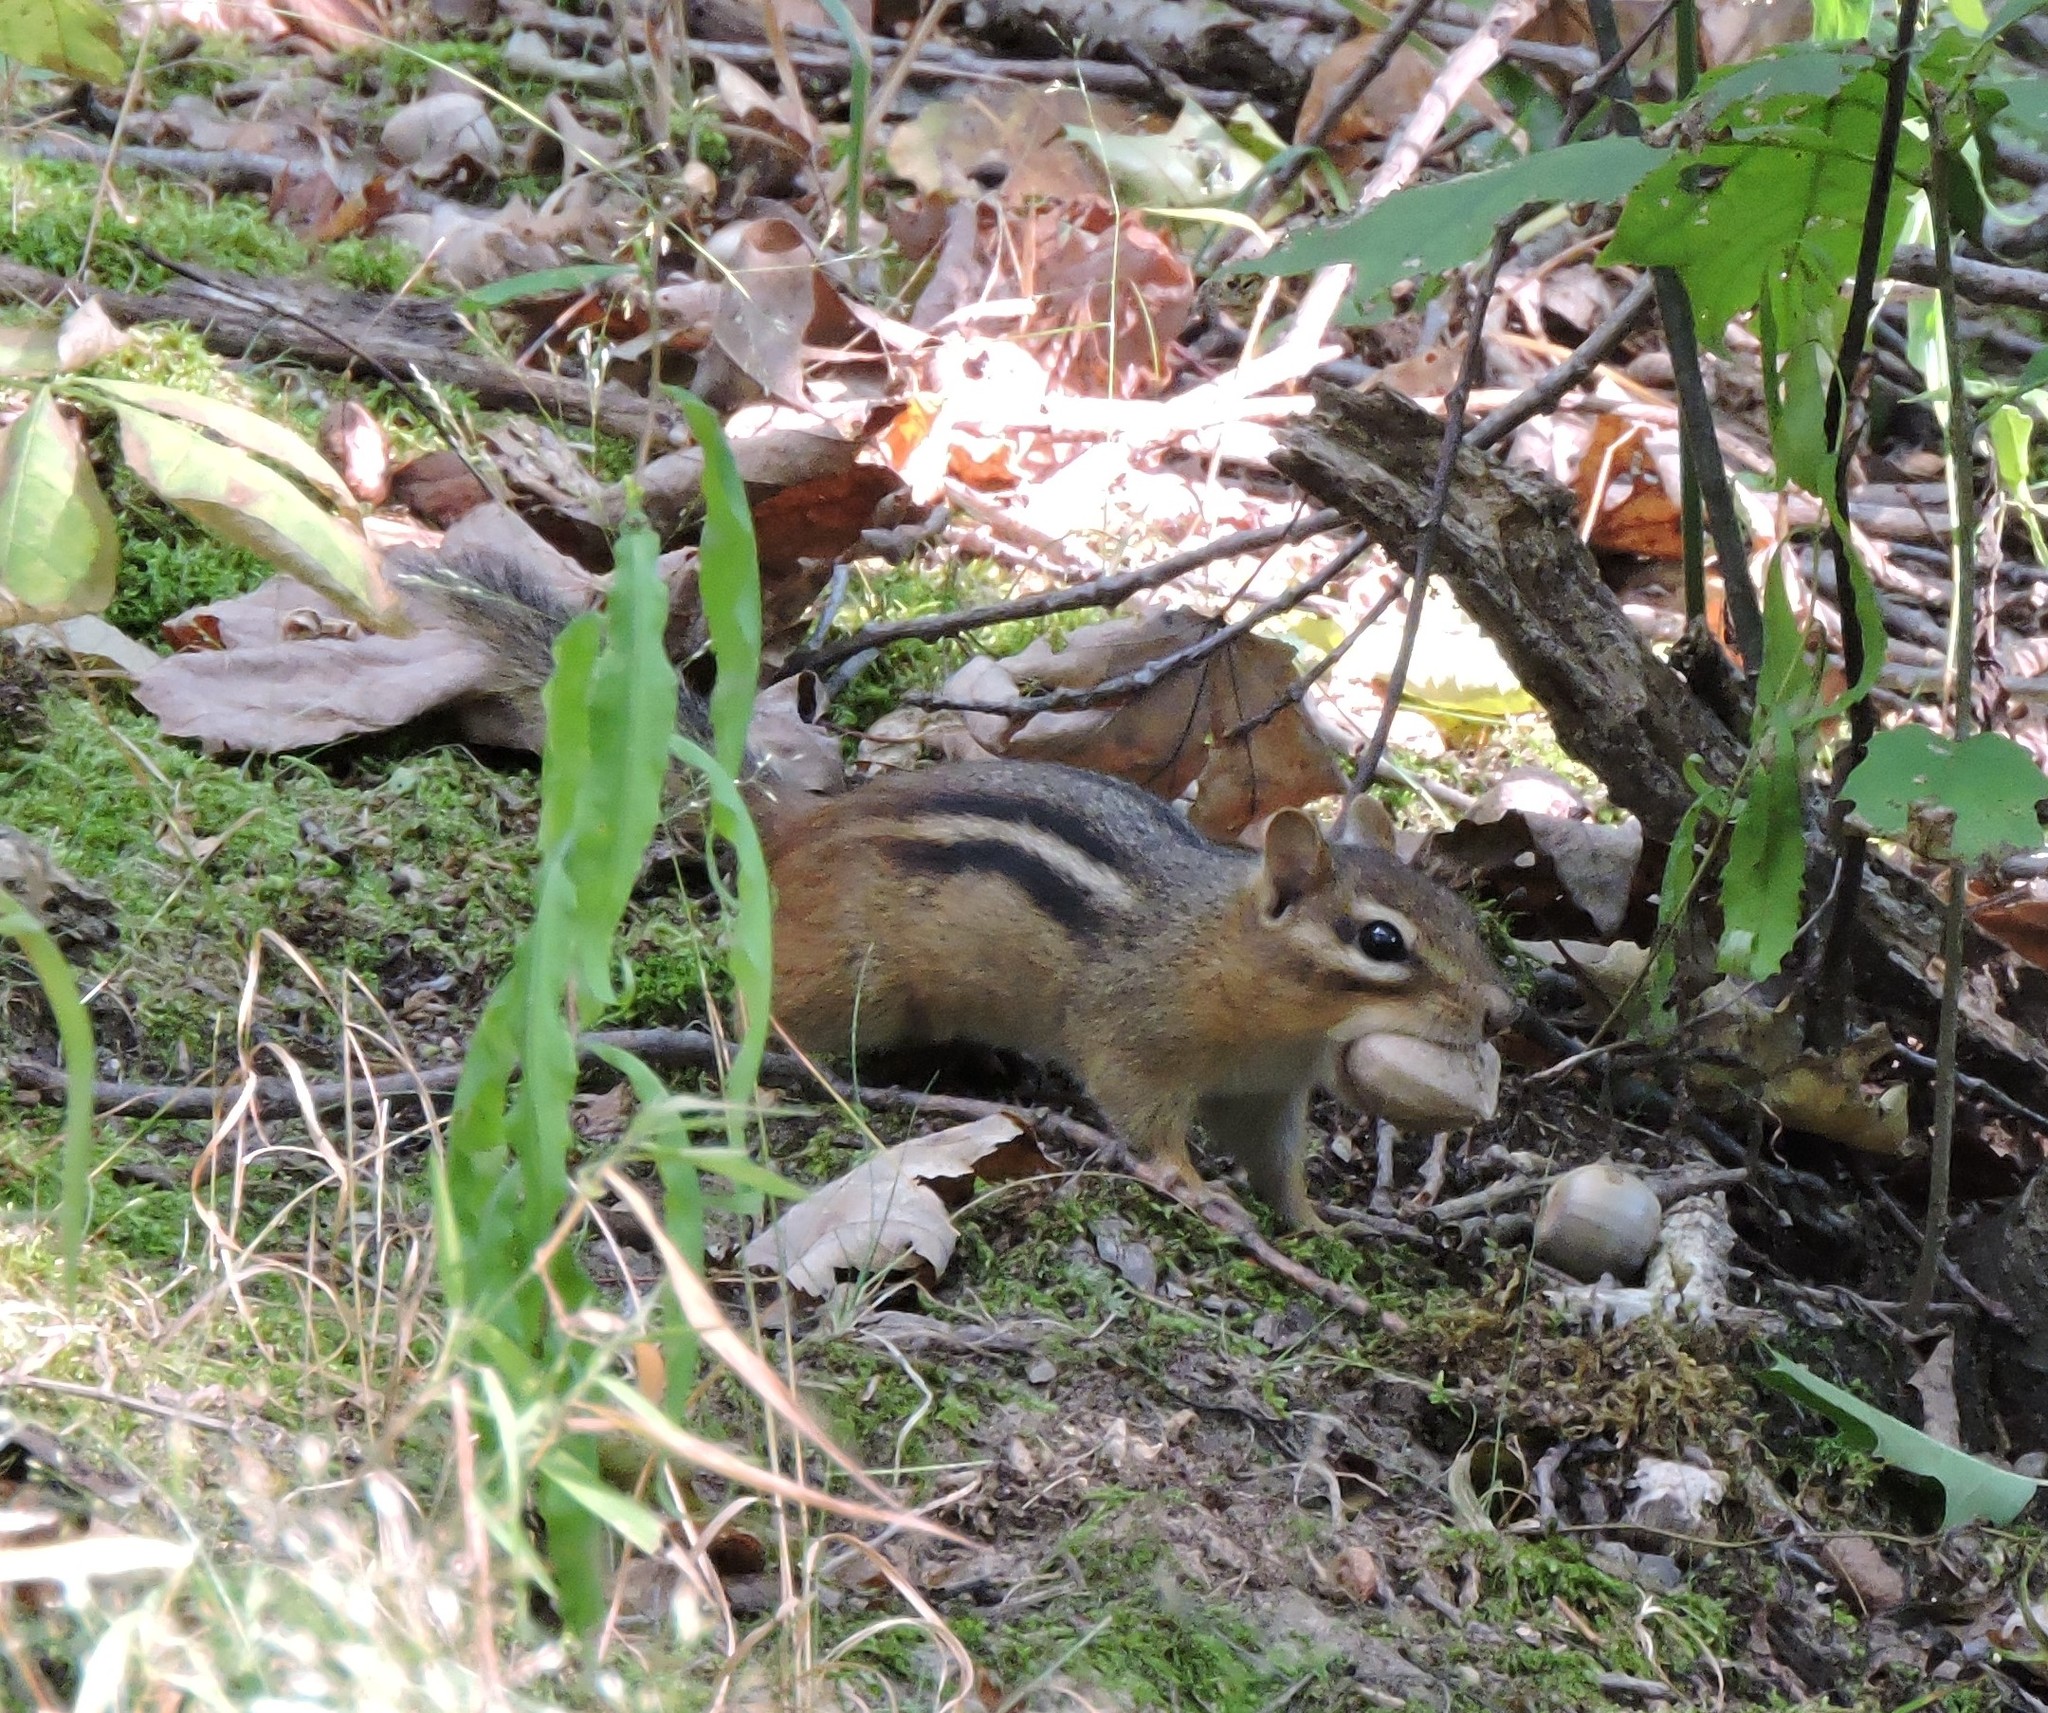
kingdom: Animalia
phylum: Chordata
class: Mammalia
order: Rodentia
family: Sciuridae
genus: Tamias
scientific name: Tamias striatus
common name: Eastern chipmunk
